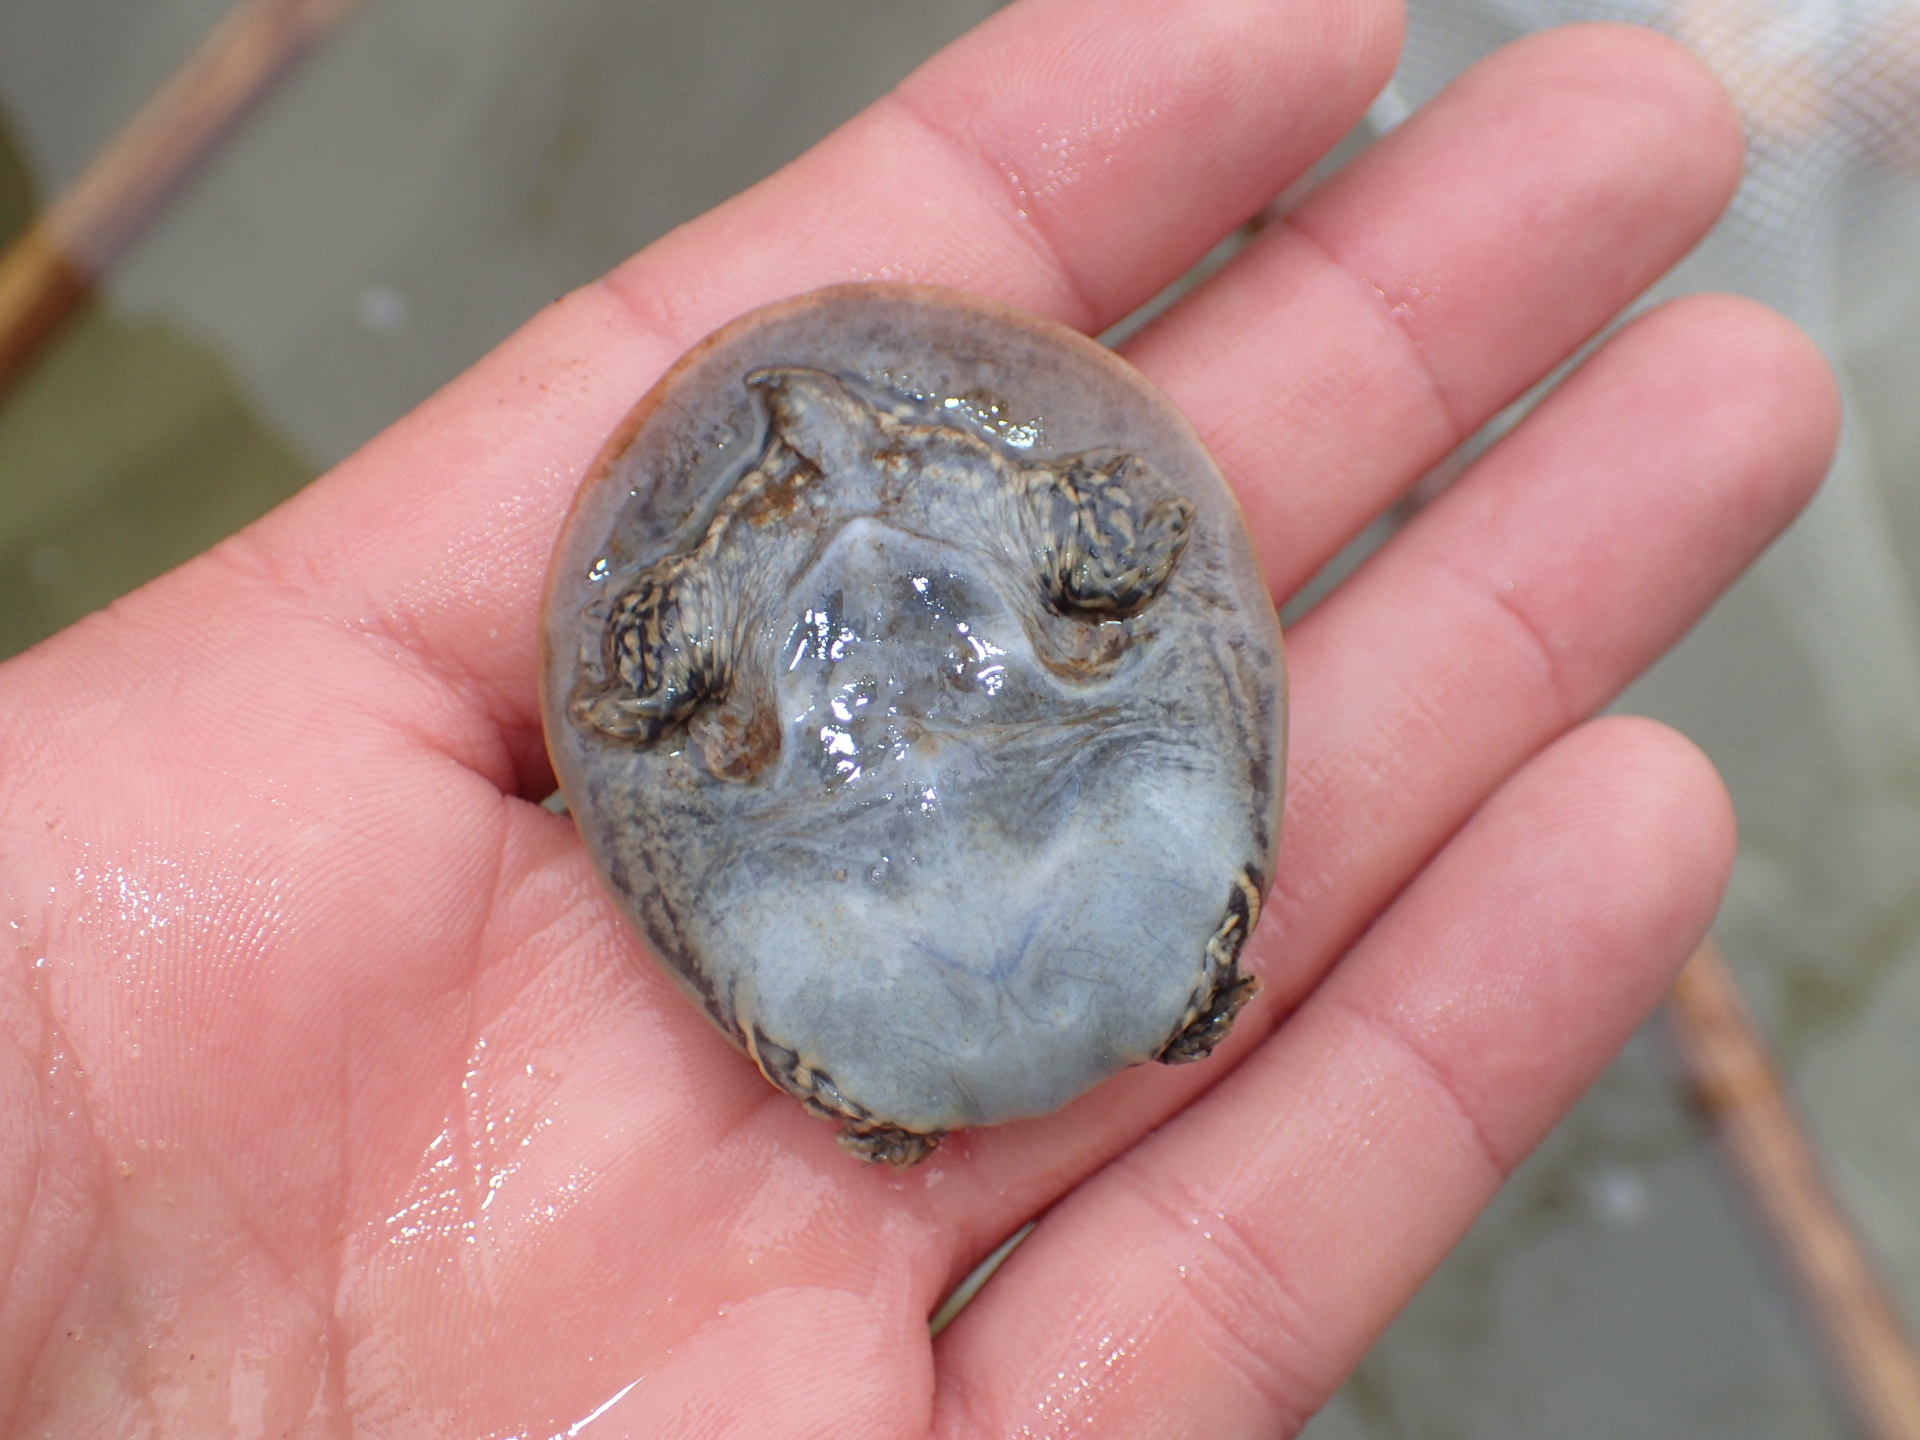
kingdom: Animalia
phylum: Chordata
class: Testudines
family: Trionychidae
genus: Apalone
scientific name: Apalone spinifera
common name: Spiny softshell turtle
